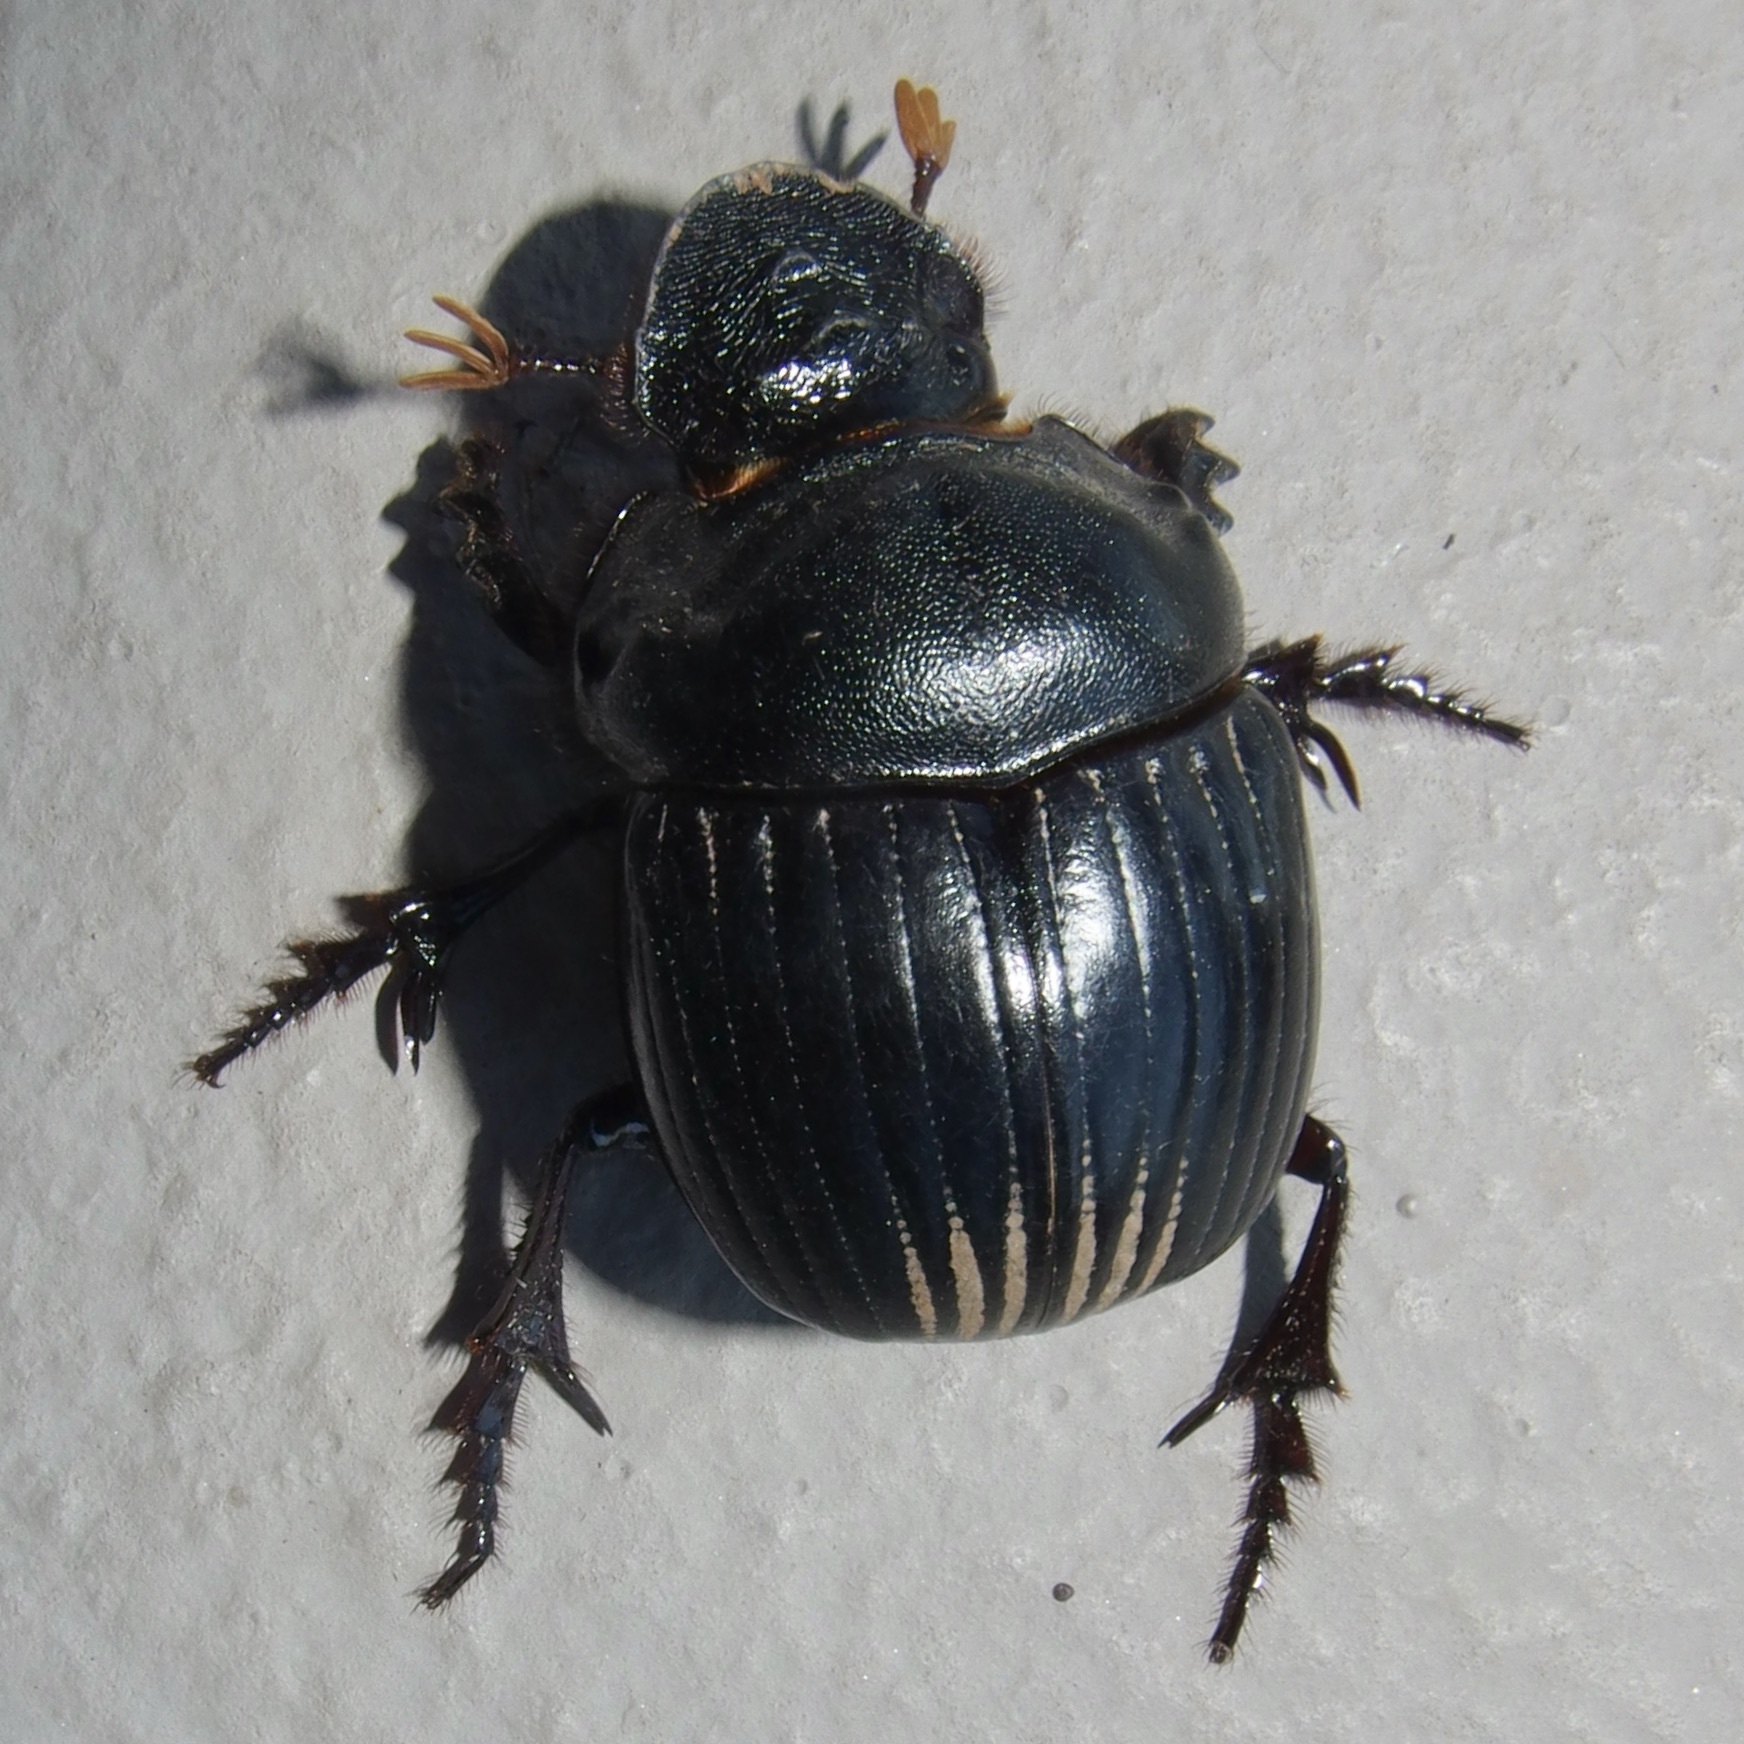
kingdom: Animalia
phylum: Arthropoda
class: Insecta
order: Coleoptera
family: Scarabaeidae
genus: Dichotomius
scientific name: Dichotomius colonicus
